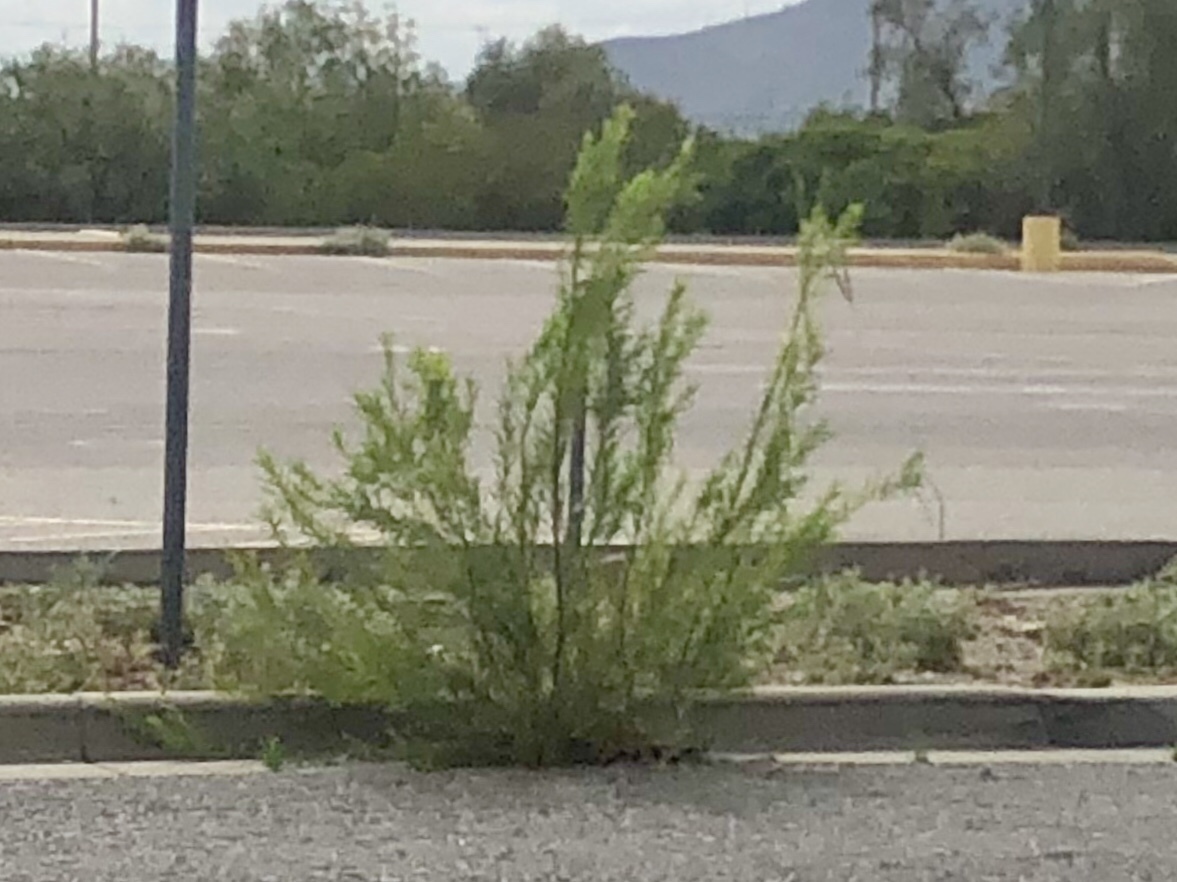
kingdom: Plantae
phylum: Tracheophyta
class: Magnoliopsida
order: Lamiales
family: Bignoniaceae
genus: Chilopsis
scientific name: Chilopsis linearis
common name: Desert-willow
